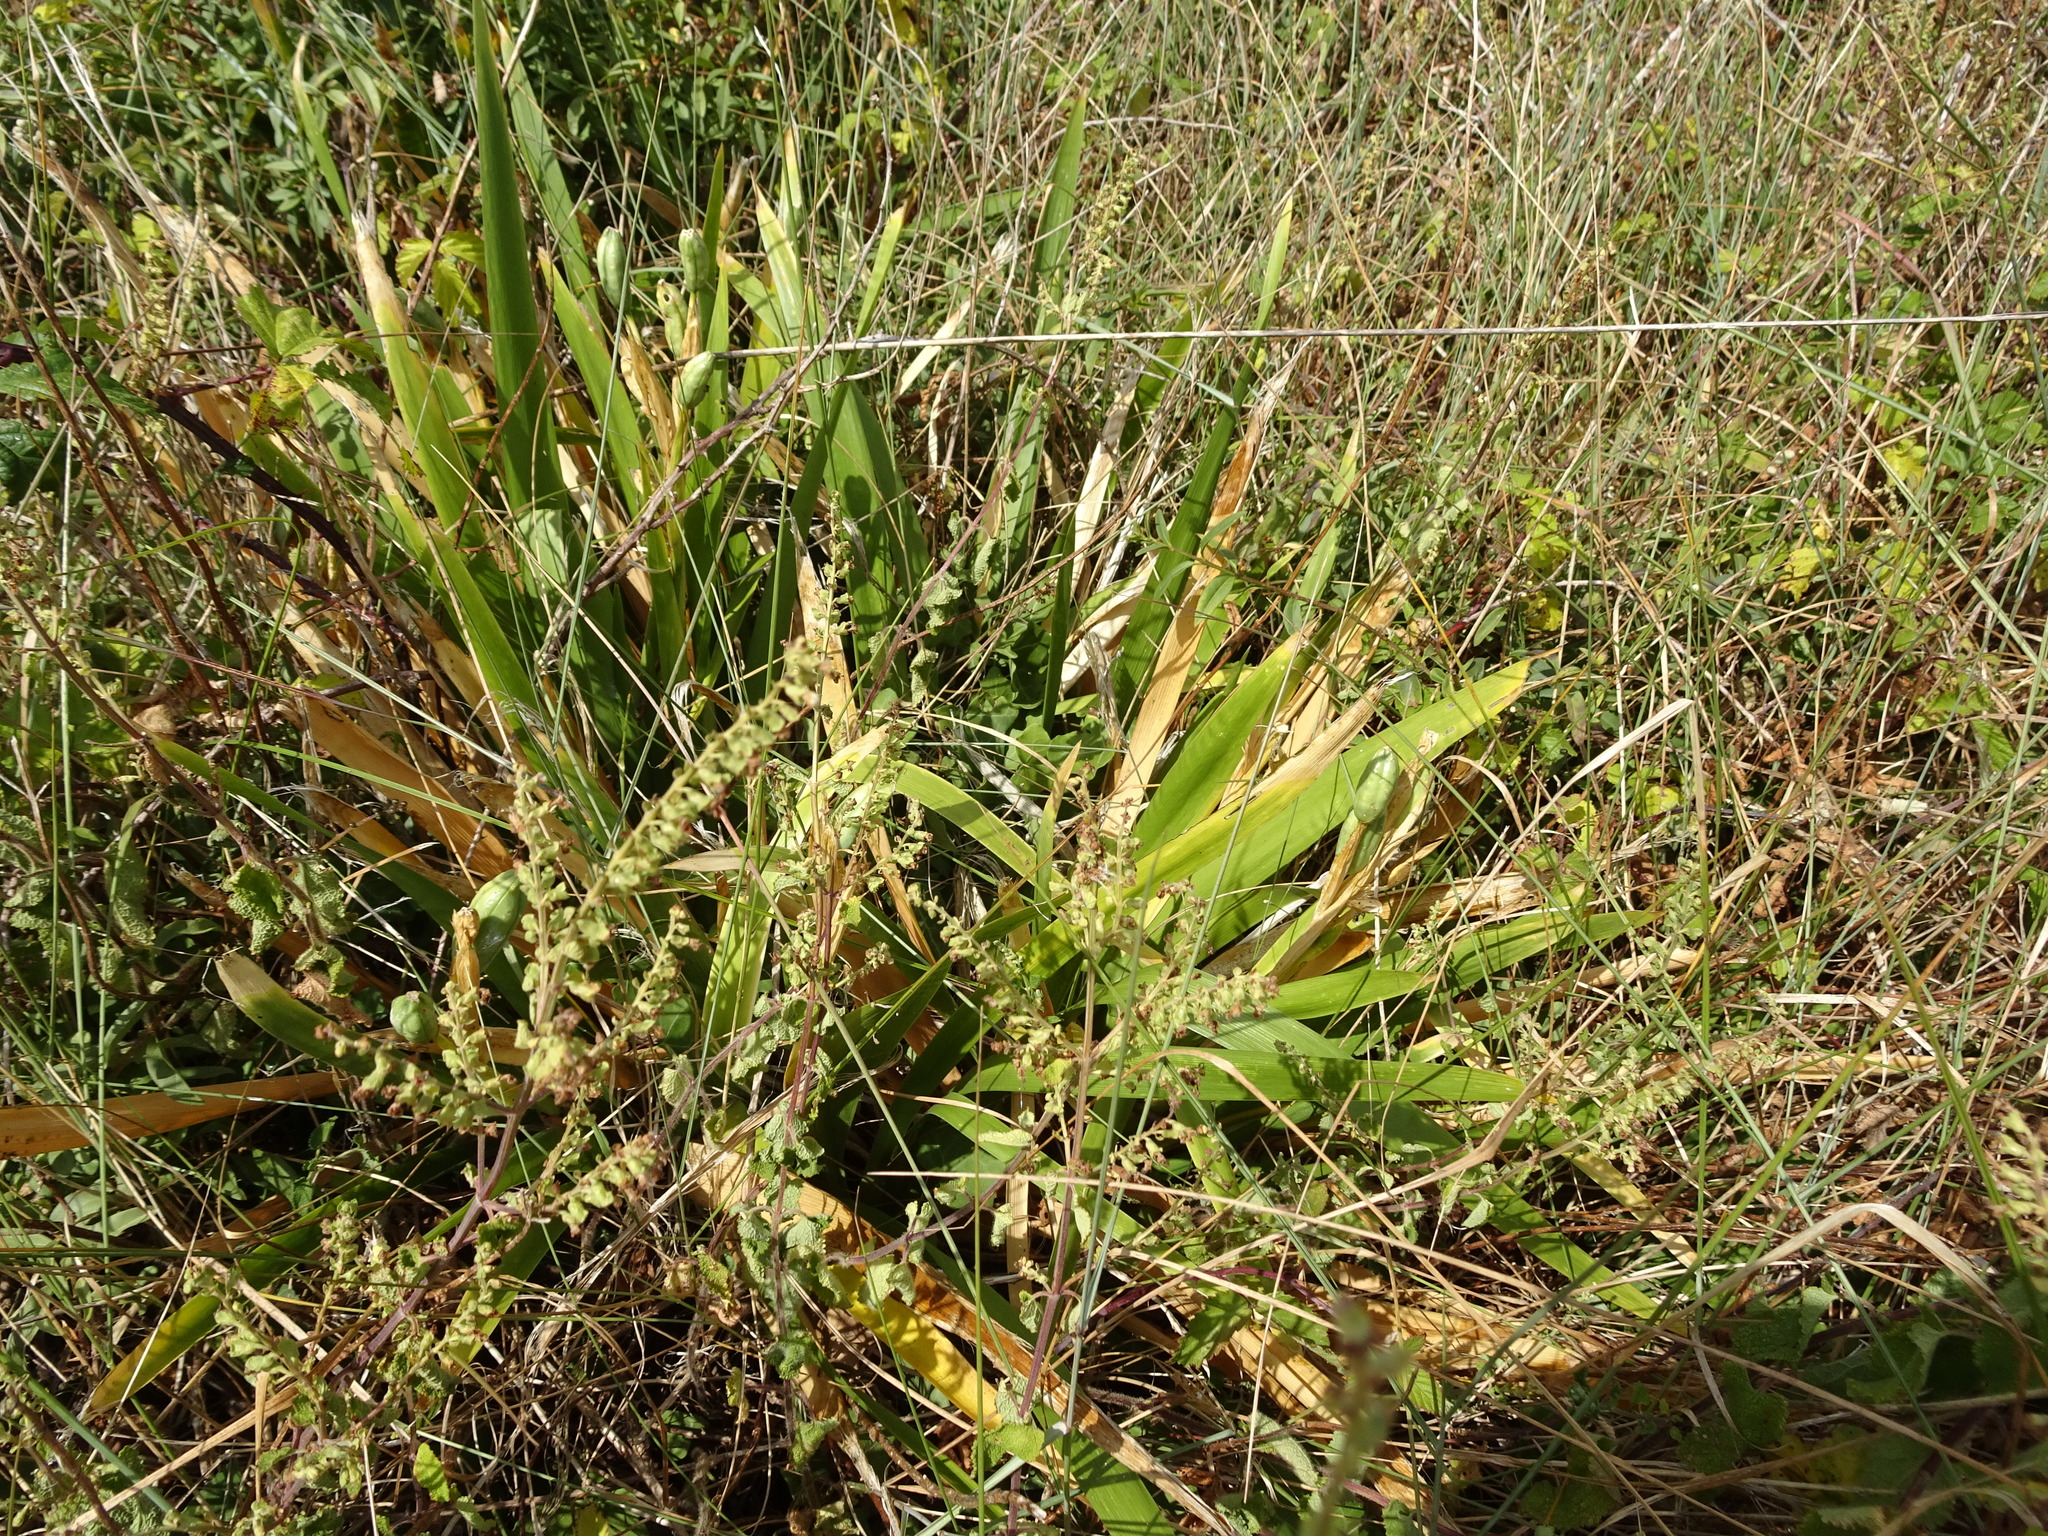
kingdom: Plantae
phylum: Tracheophyta
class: Liliopsida
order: Asparagales
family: Iridaceae
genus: Iris
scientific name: Iris foetidissima
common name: Stinking iris
